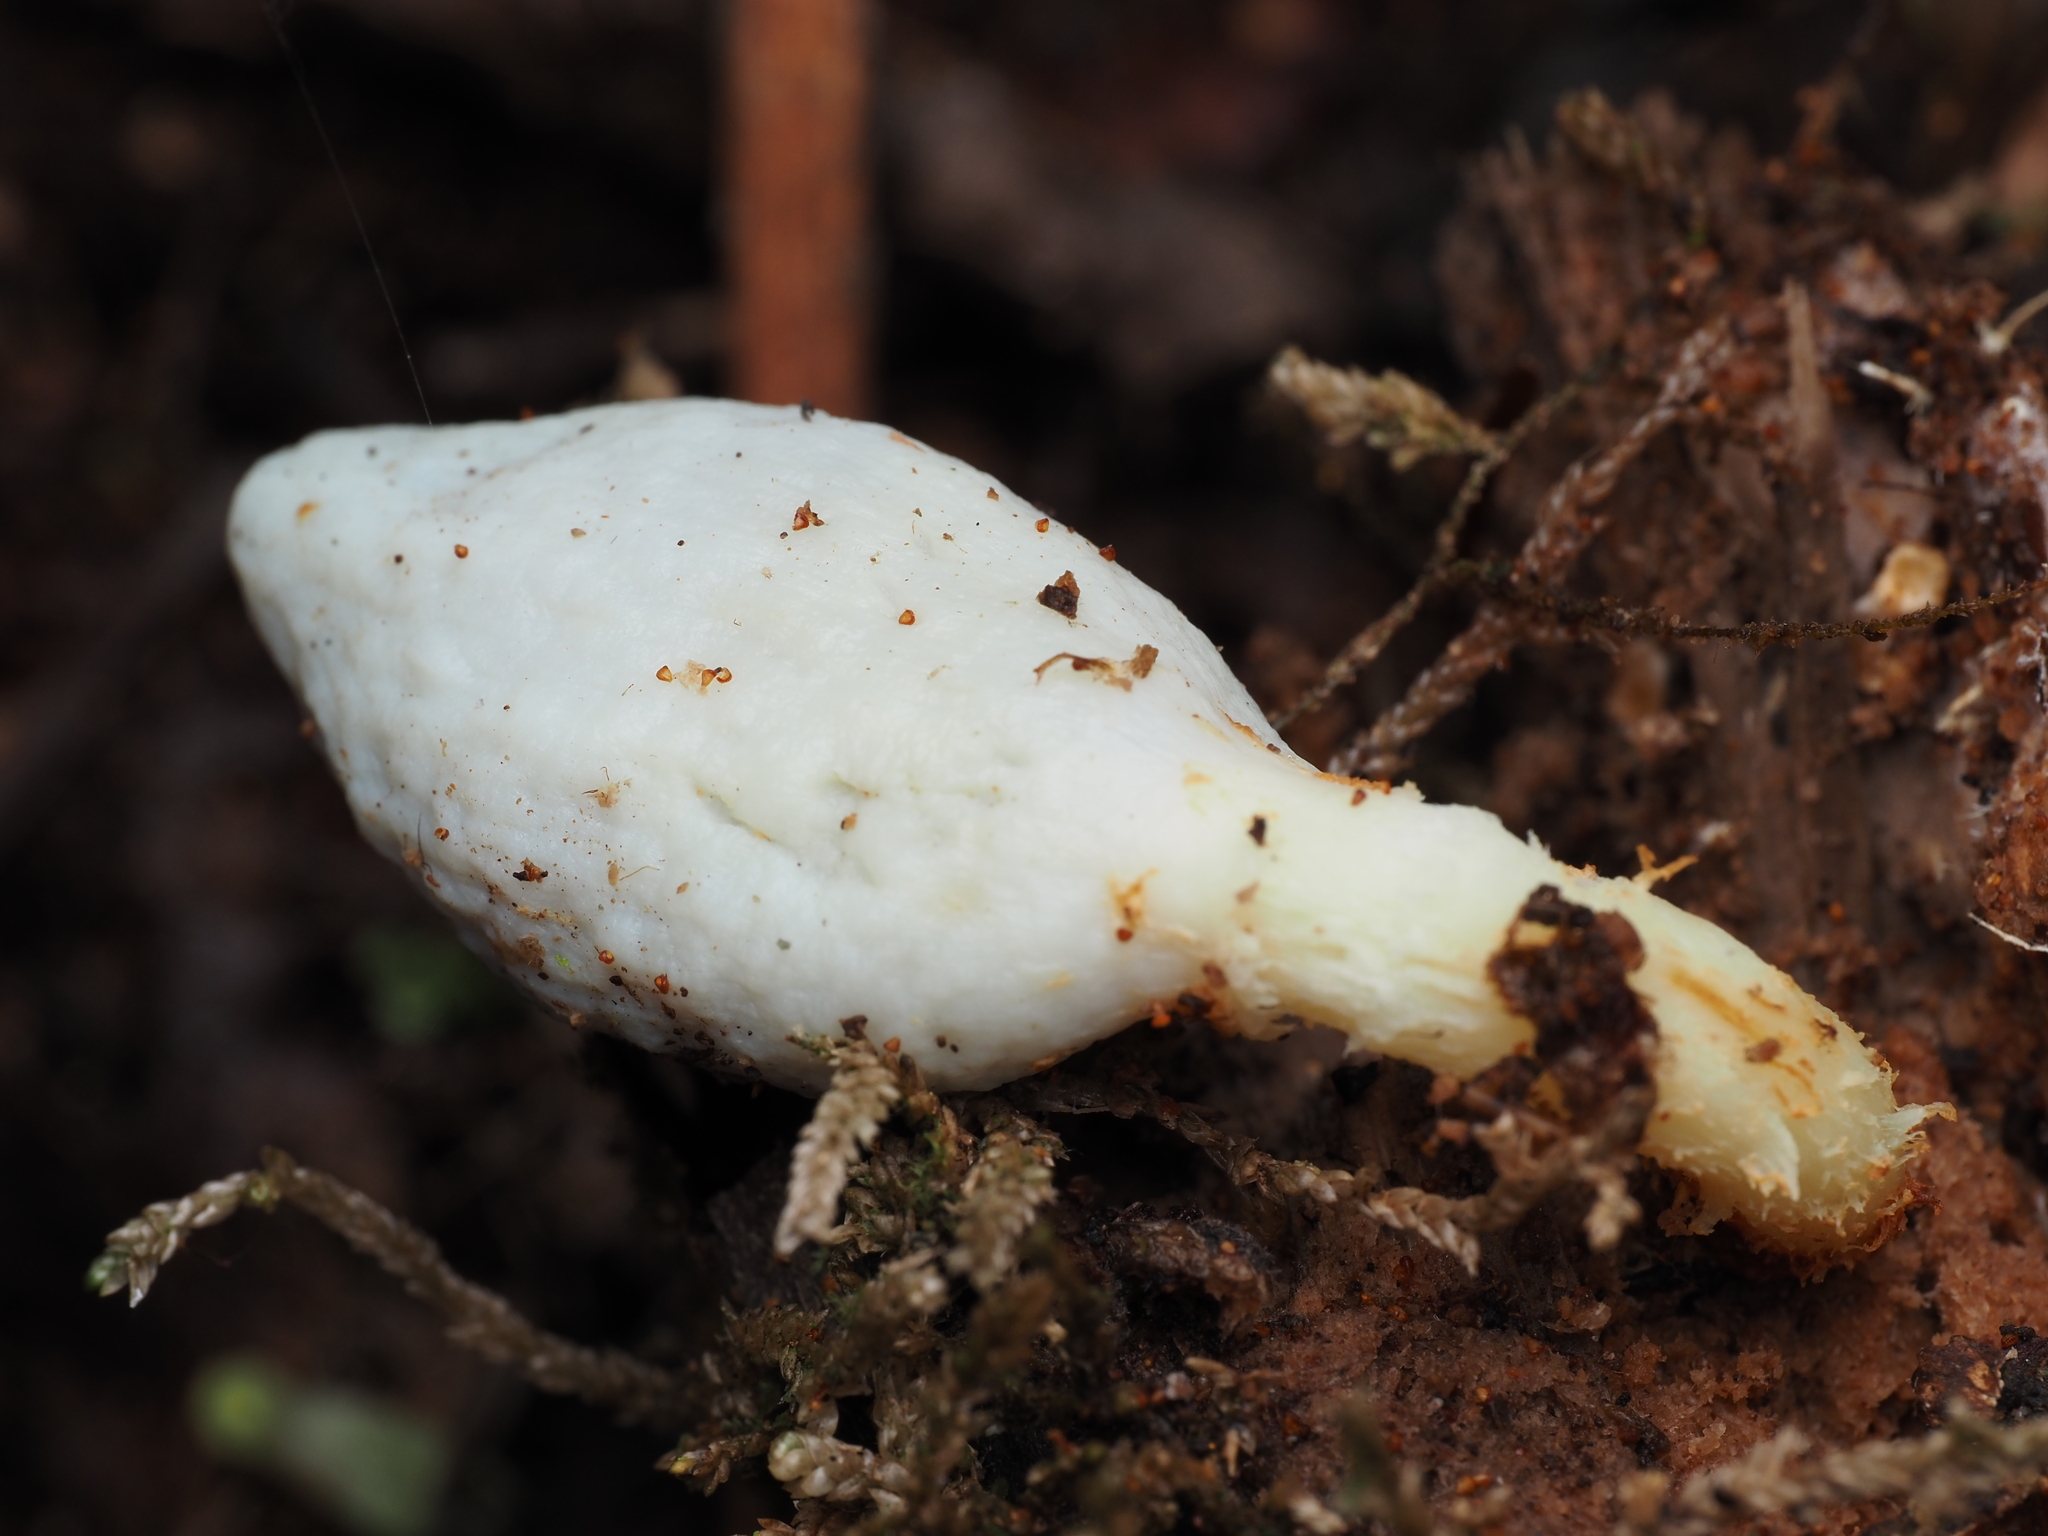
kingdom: Fungi
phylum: Basidiomycota
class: Agaricomycetes
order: Agaricales
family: Agaricaceae
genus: Clavogaster
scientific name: Clavogaster virescens
